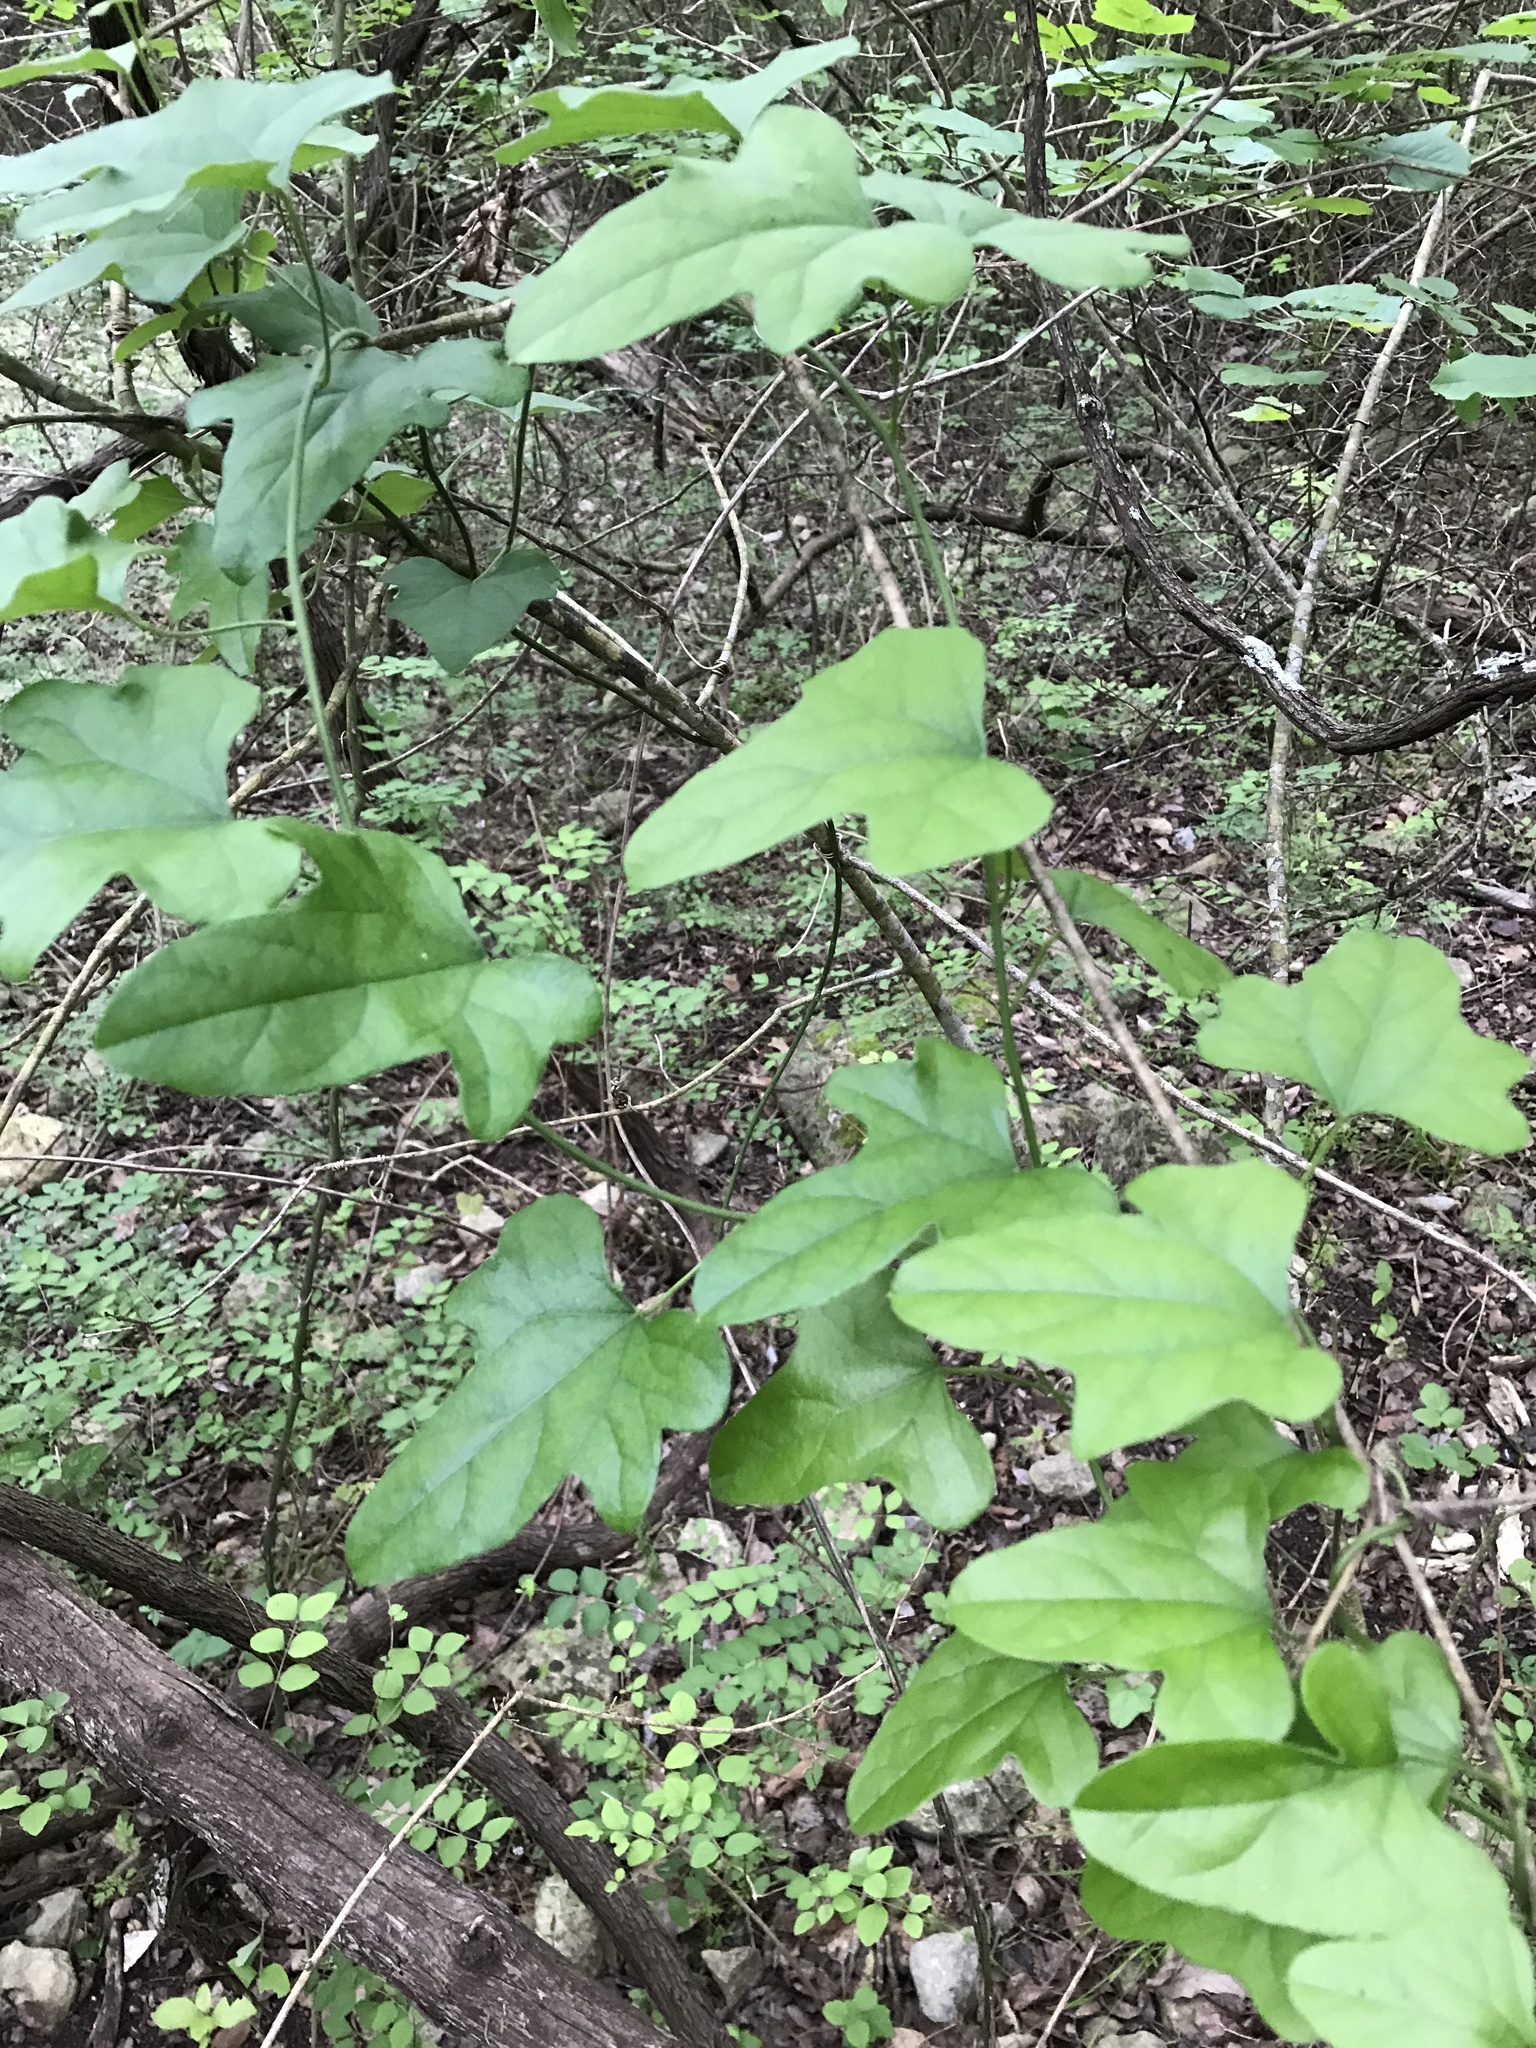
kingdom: Plantae
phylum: Tracheophyta
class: Magnoliopsida
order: Ranunculales
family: Menispermaceae
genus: Cocculus
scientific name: Cocculus carolinus
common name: Carolina moonseed
